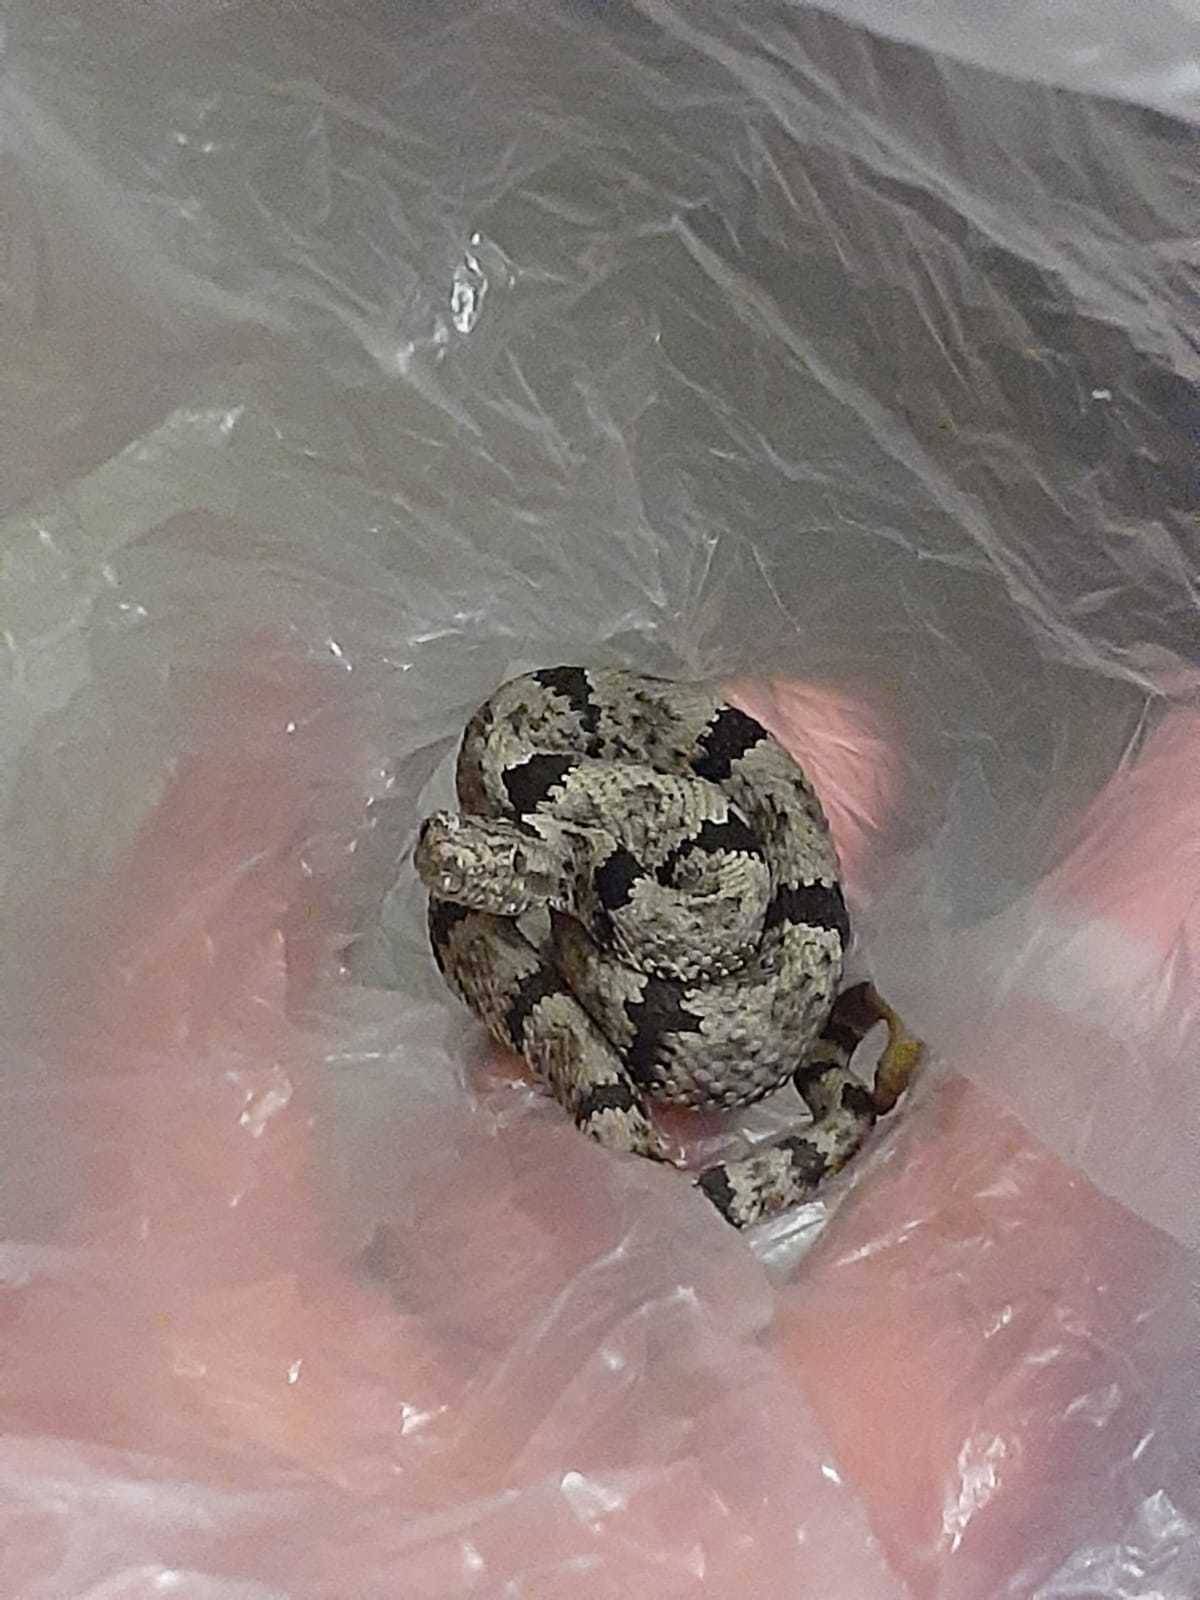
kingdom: Animalia
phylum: Chordata
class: Squamata
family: Viperidae
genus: Crotalus
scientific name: Crotalus lepidus
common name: Rock rattlesnake
